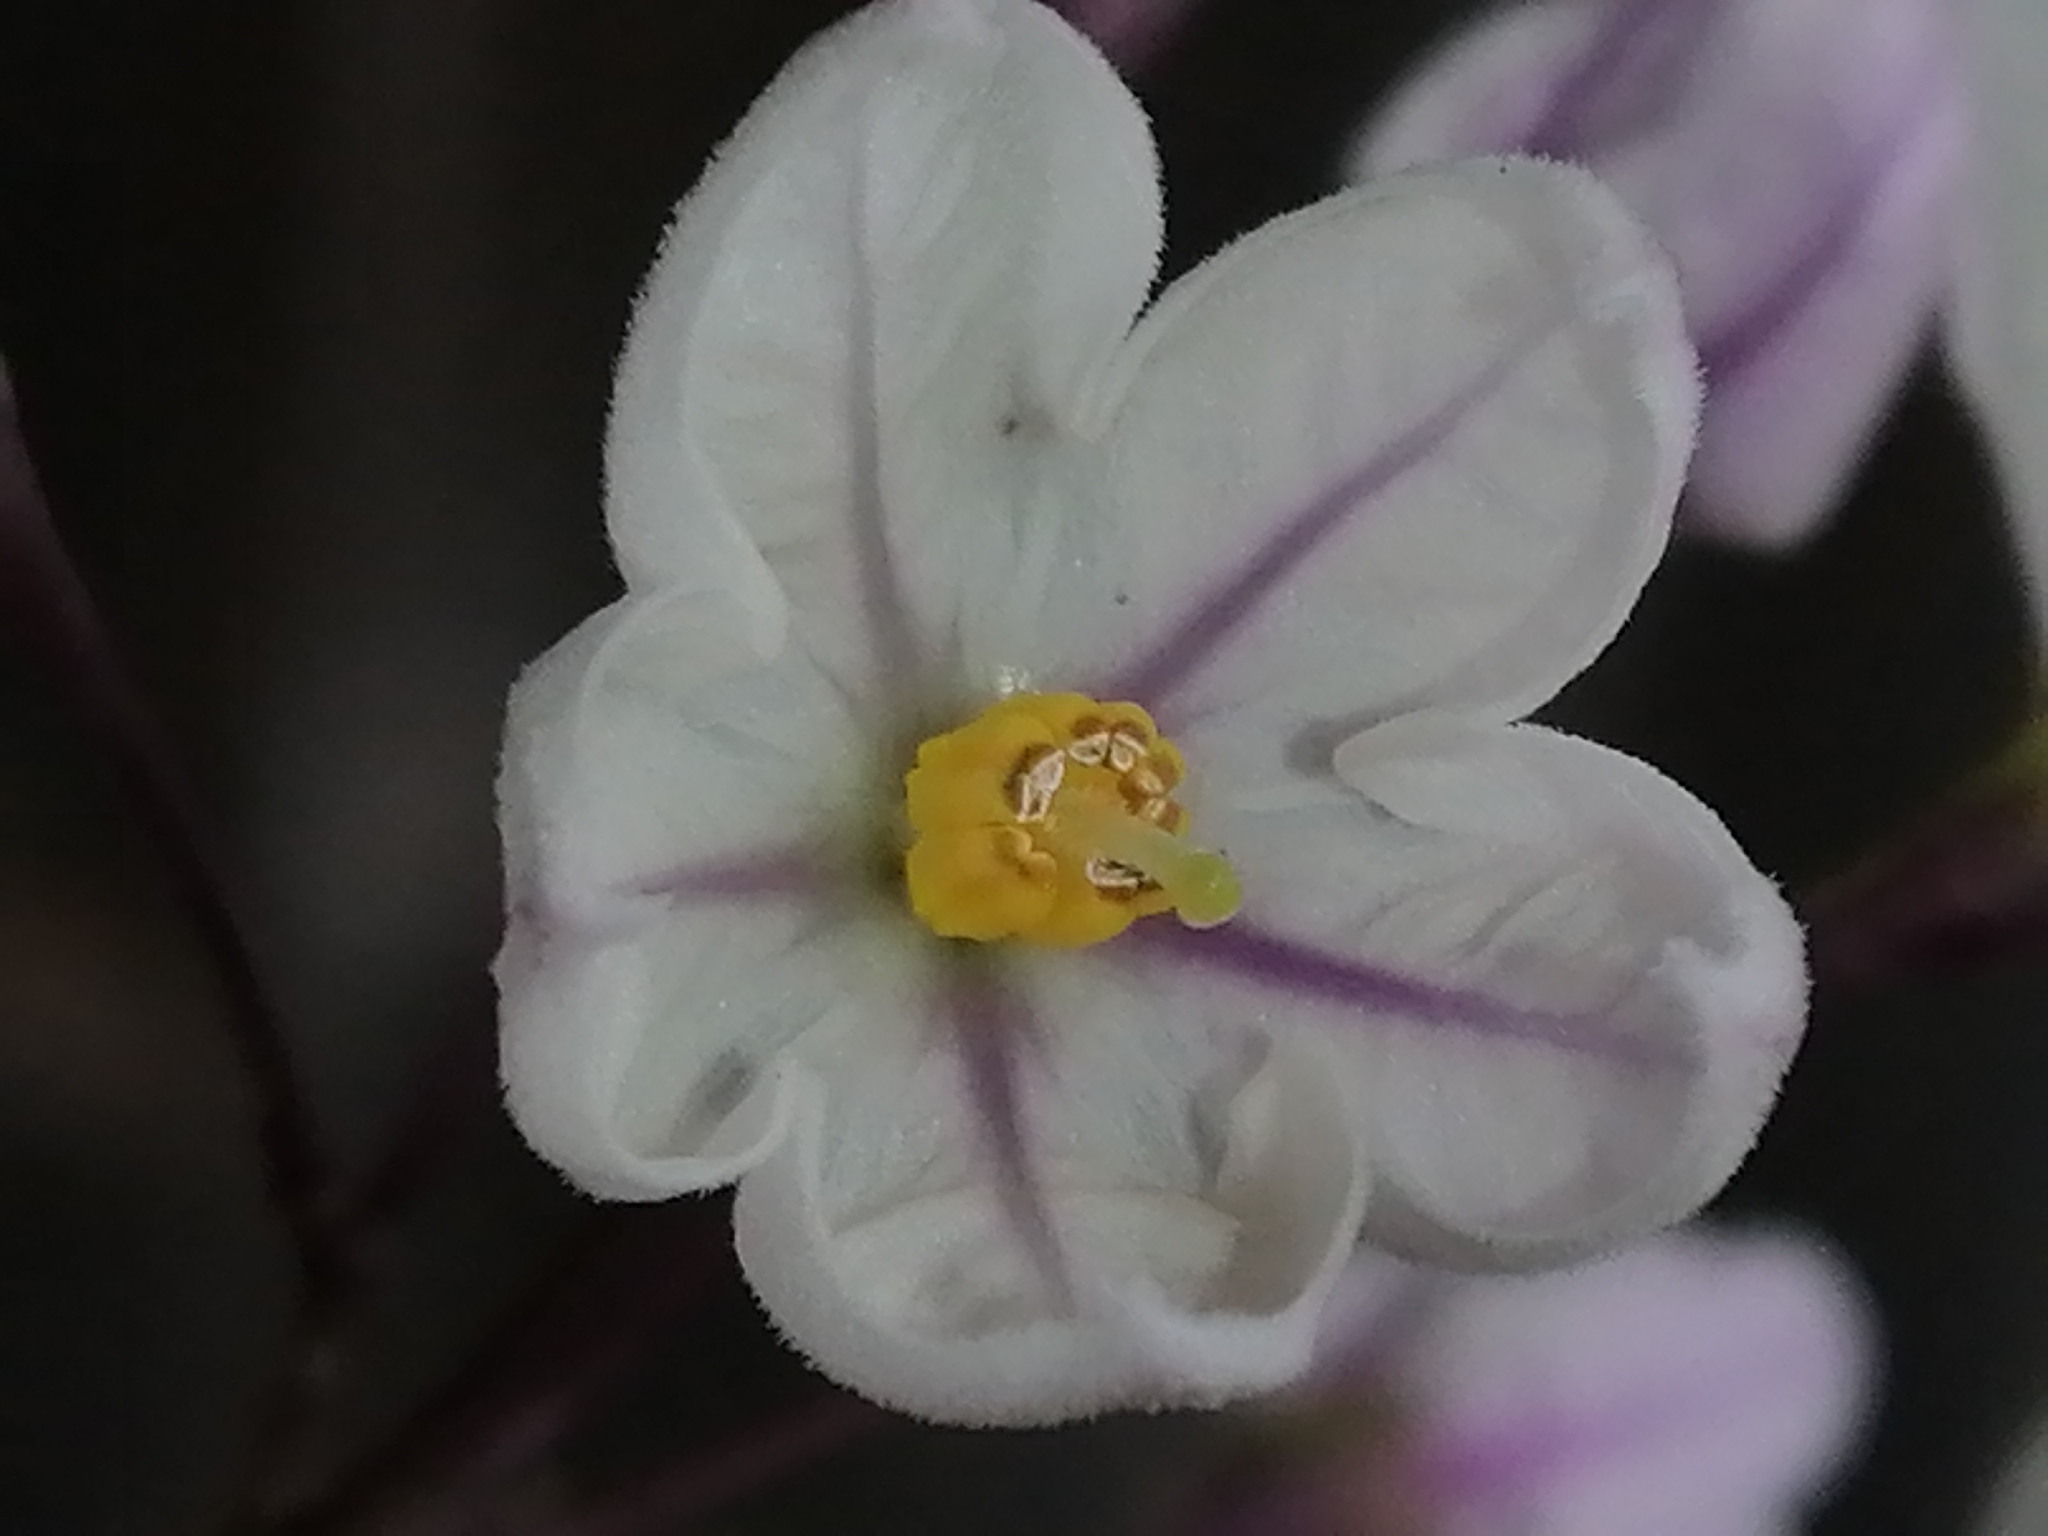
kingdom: Plantae
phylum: Tracheophyta
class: Magnoliopsida
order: Solanales
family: Solanaceae
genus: Solanum
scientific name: Solanum laxum
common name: Nightshade
